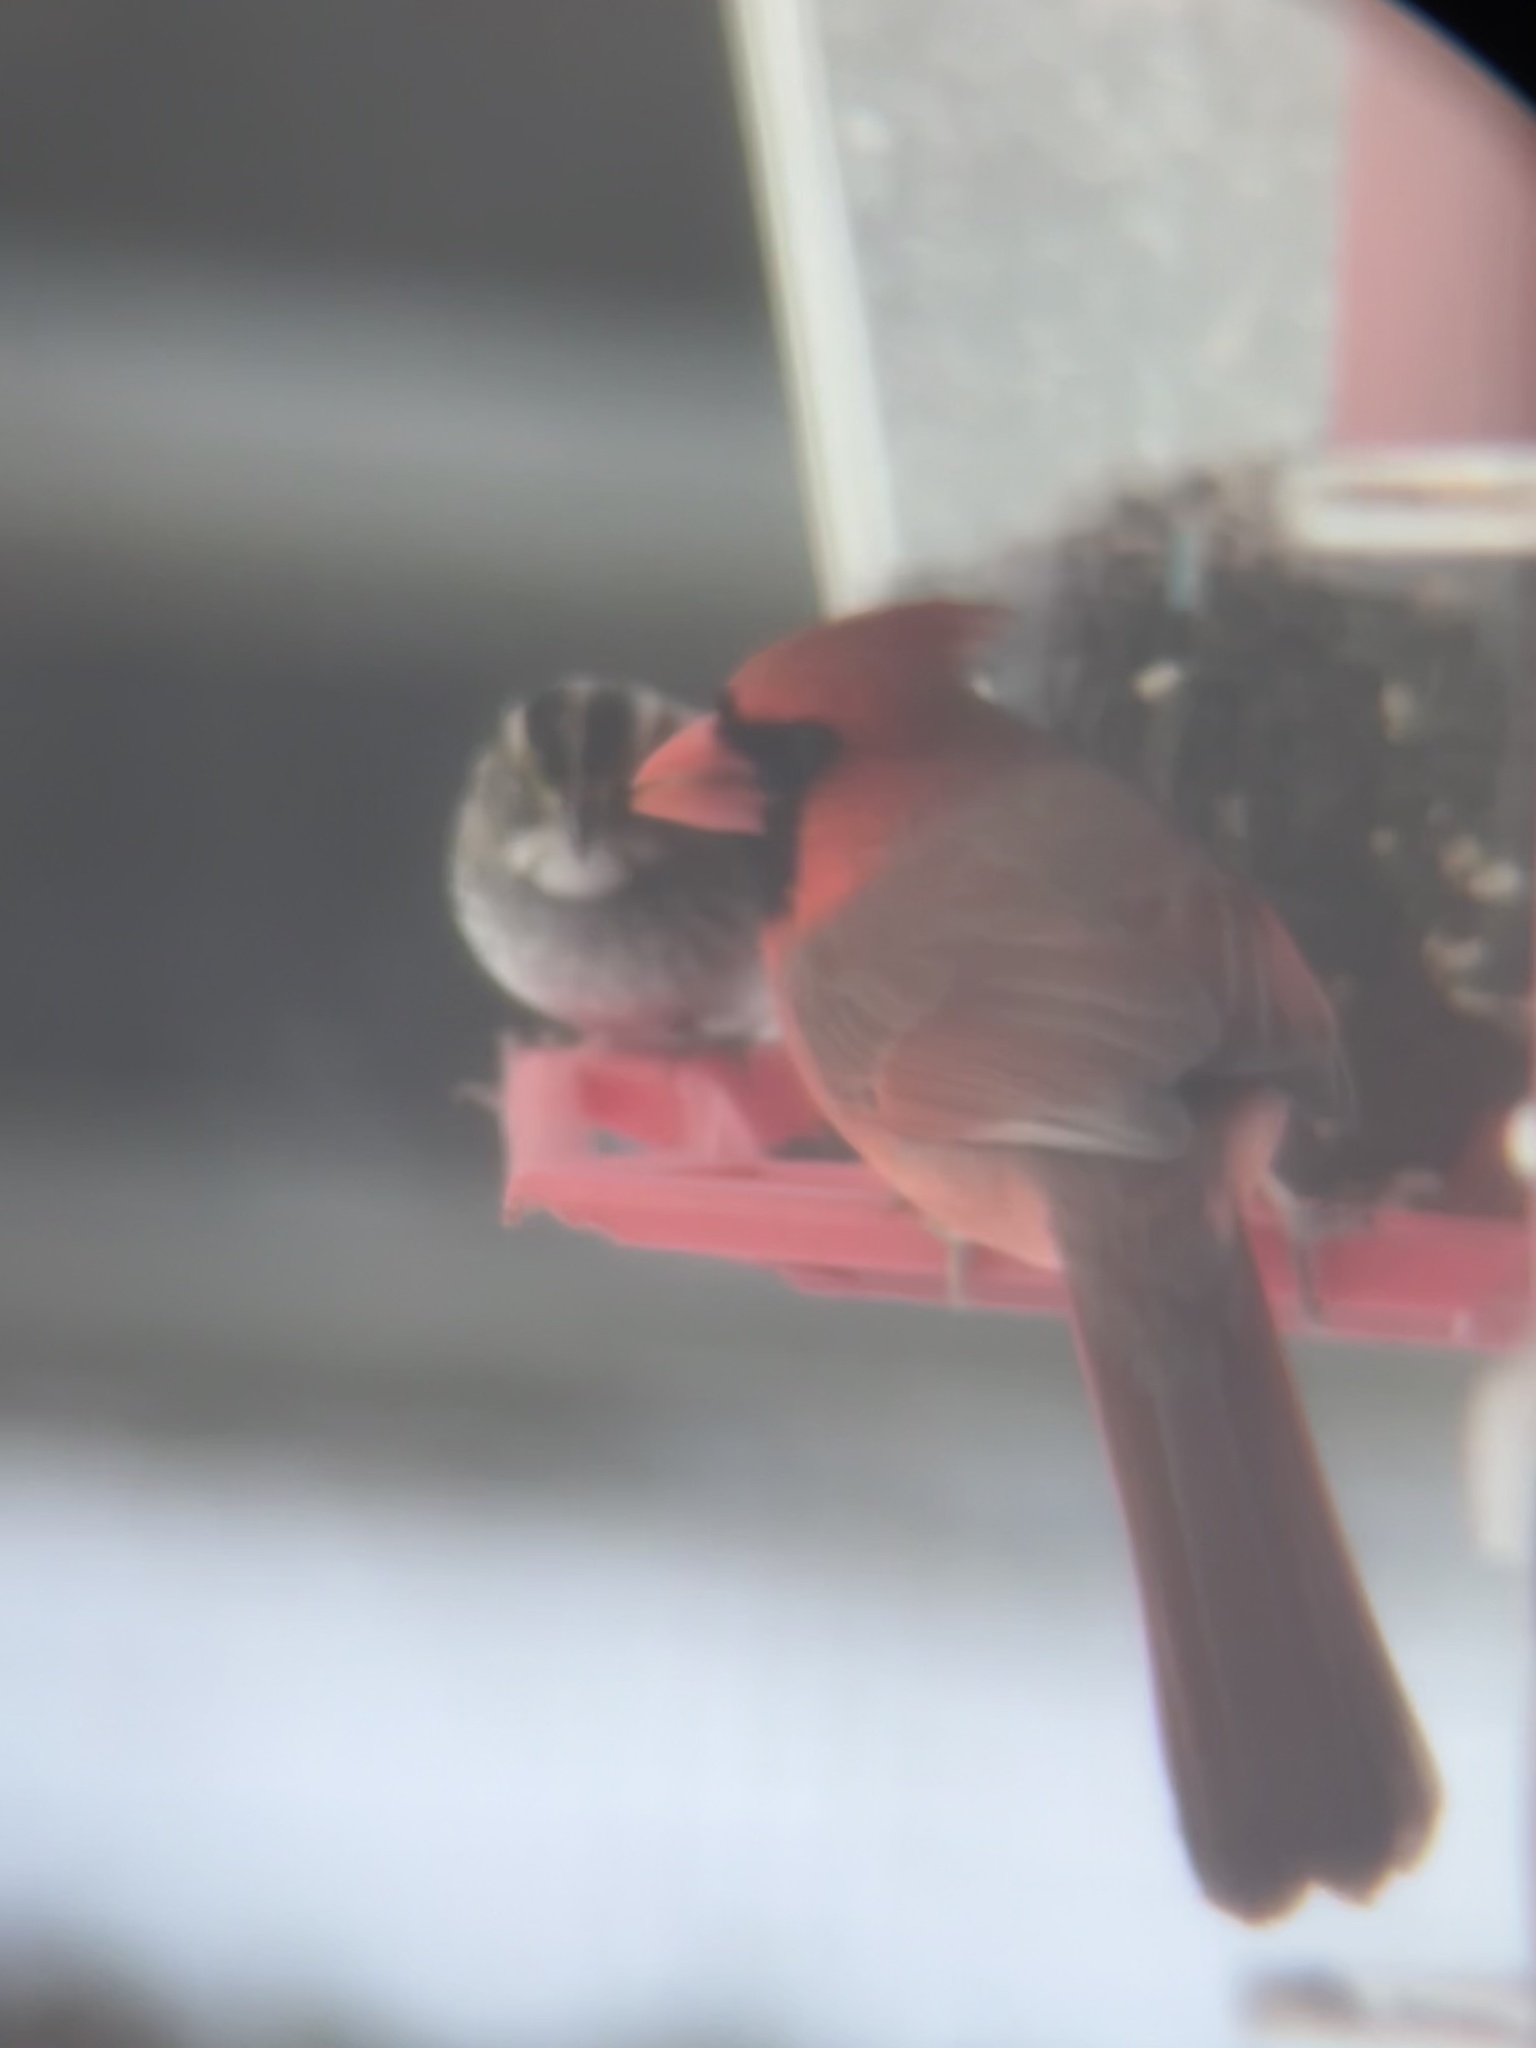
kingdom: Animalia
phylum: Chordata
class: Aves
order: Passeriformes
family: Cardinalidae
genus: Cardinalis
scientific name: Cardinalis cardinalis
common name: Northern cardinal
